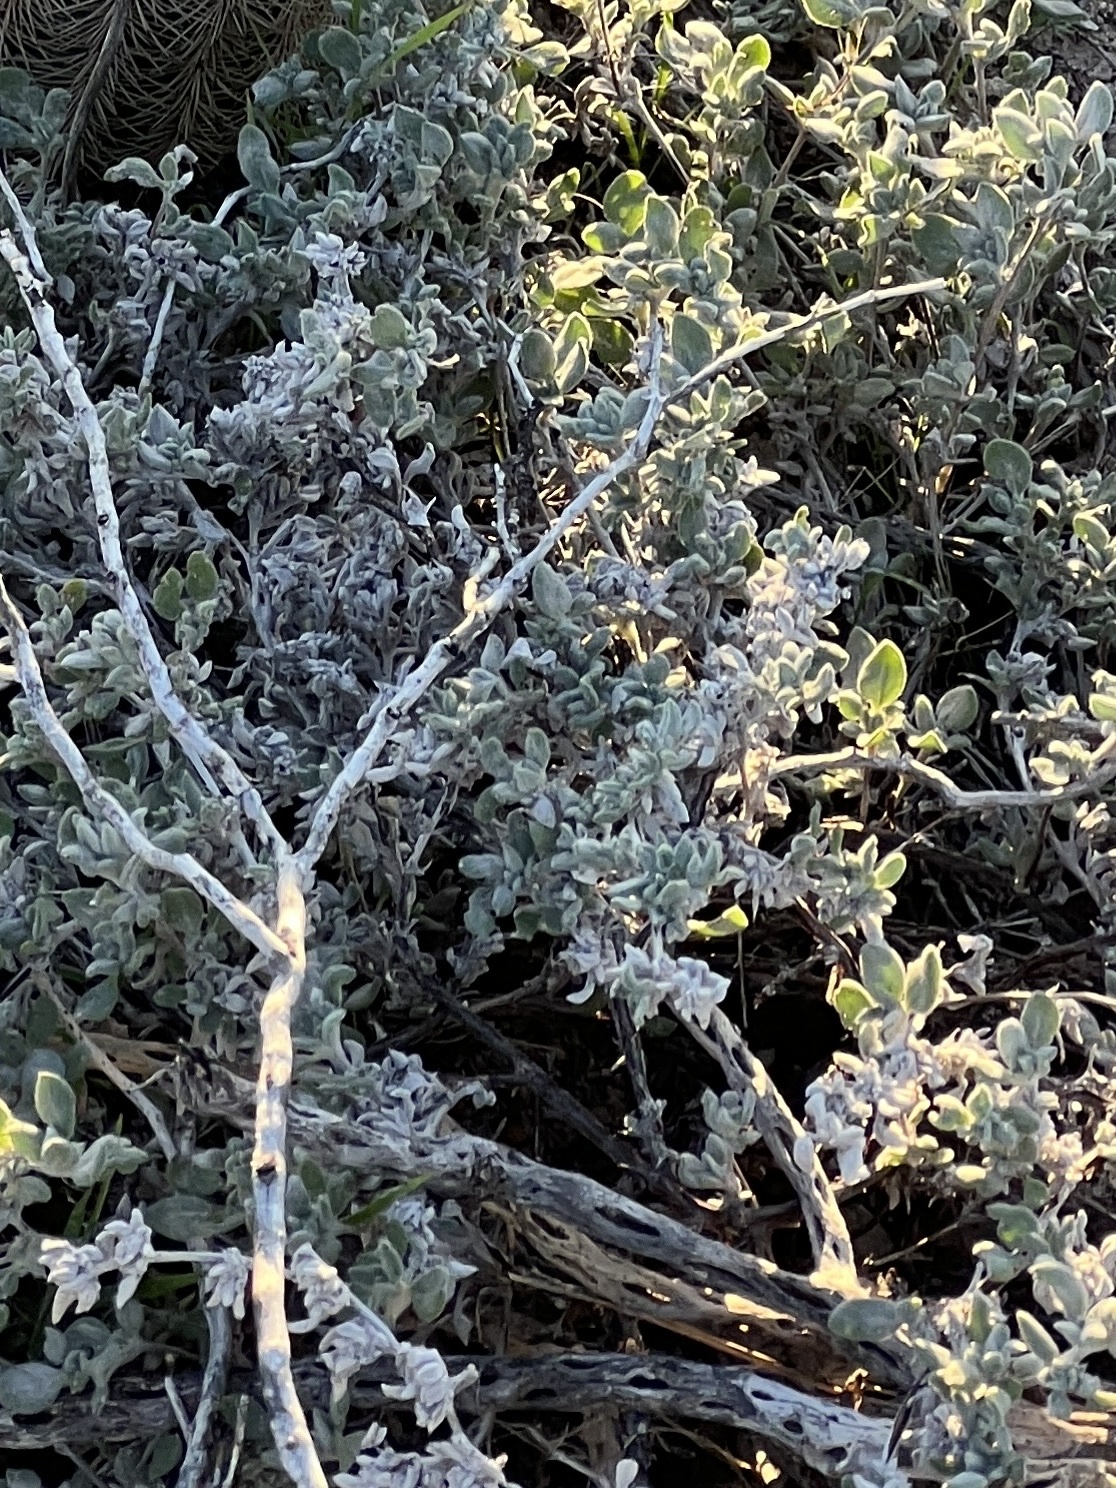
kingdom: Plantae
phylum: Tracheophyta
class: Magnoliopsida
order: Boraginales
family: Ehretiaceae
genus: Tiquilia
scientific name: Tiquilia canescens
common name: Hairy tiquilia
